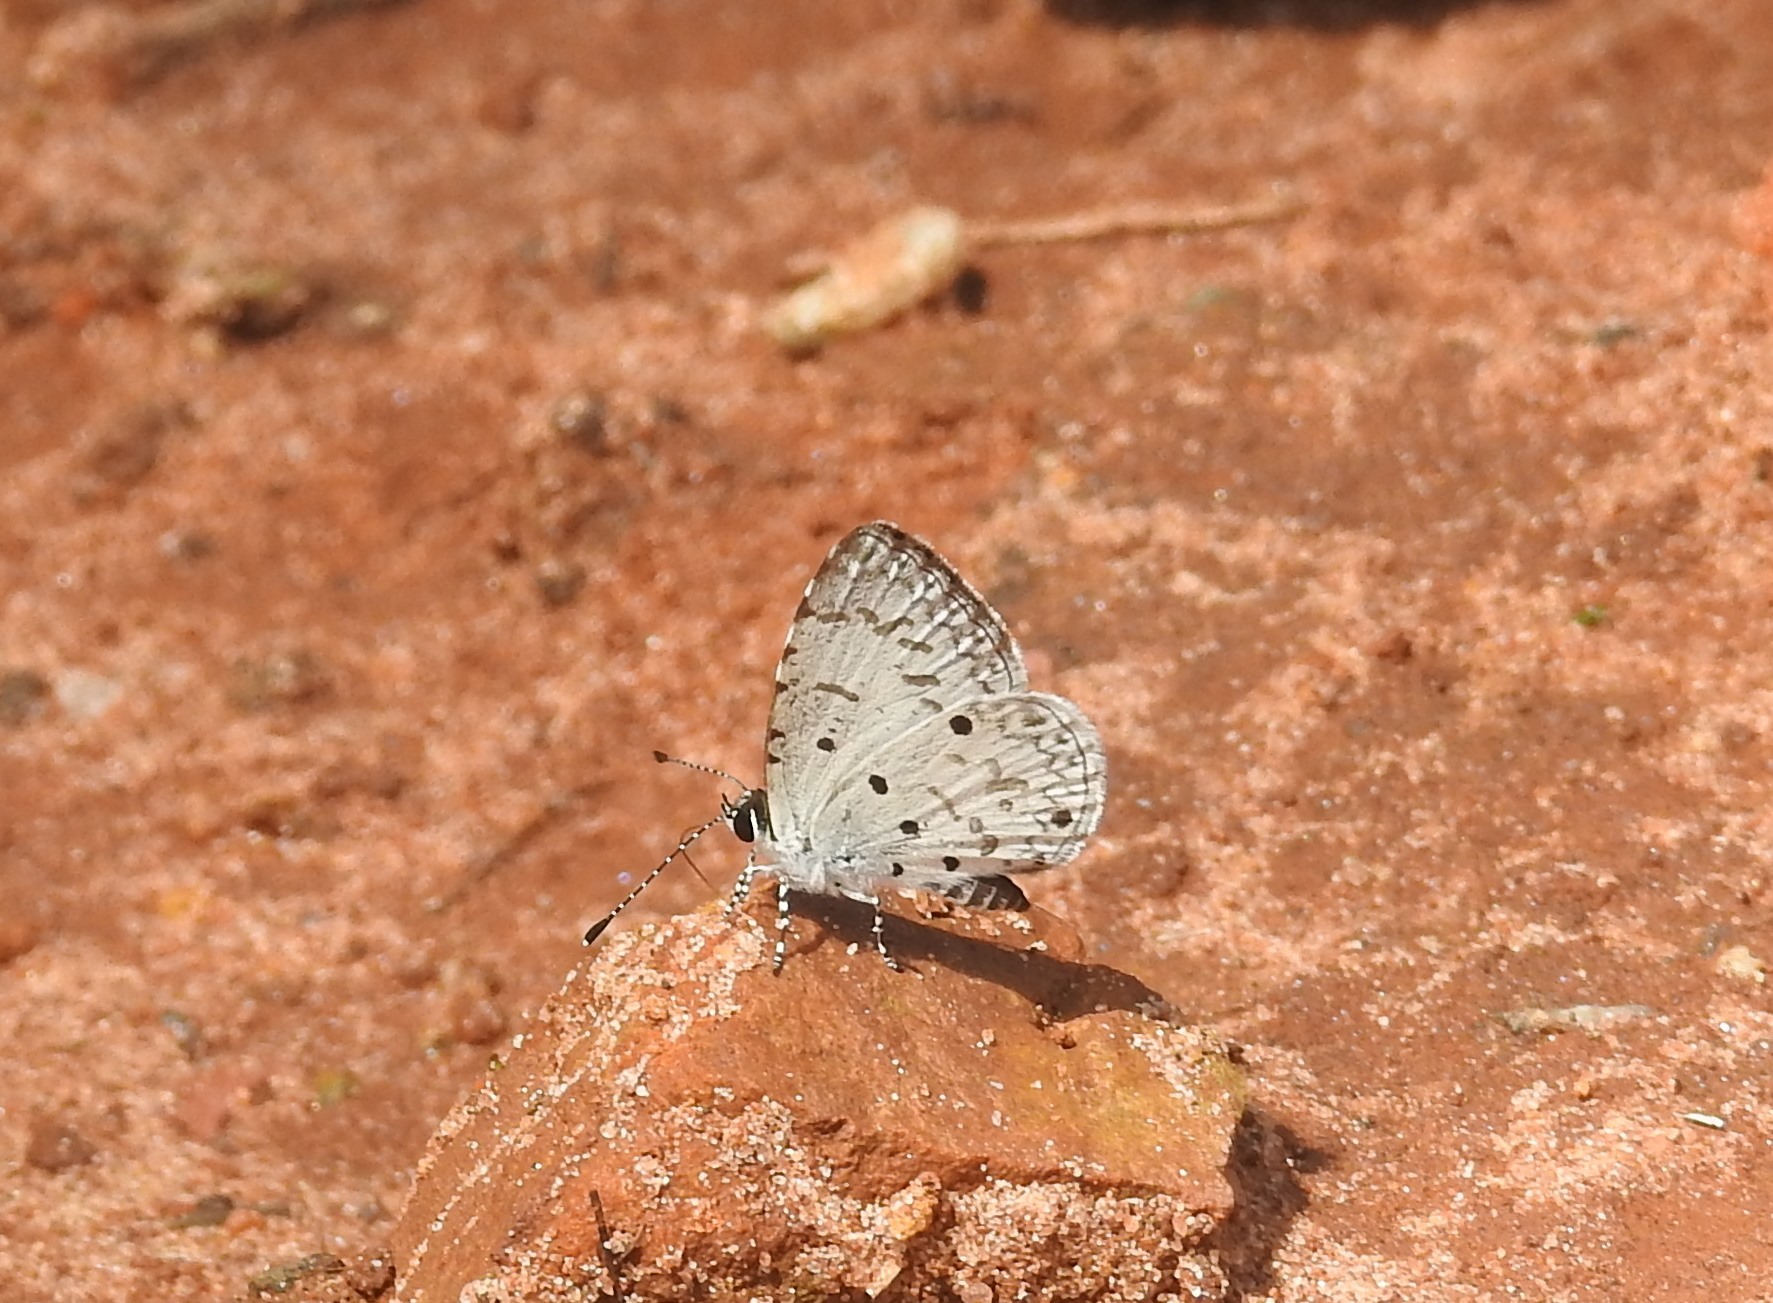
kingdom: Animalia
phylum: Arthropoda
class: Insecta
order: Lepidoptera
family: Lycaenidae
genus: Megisba
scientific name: Megisba malaya
